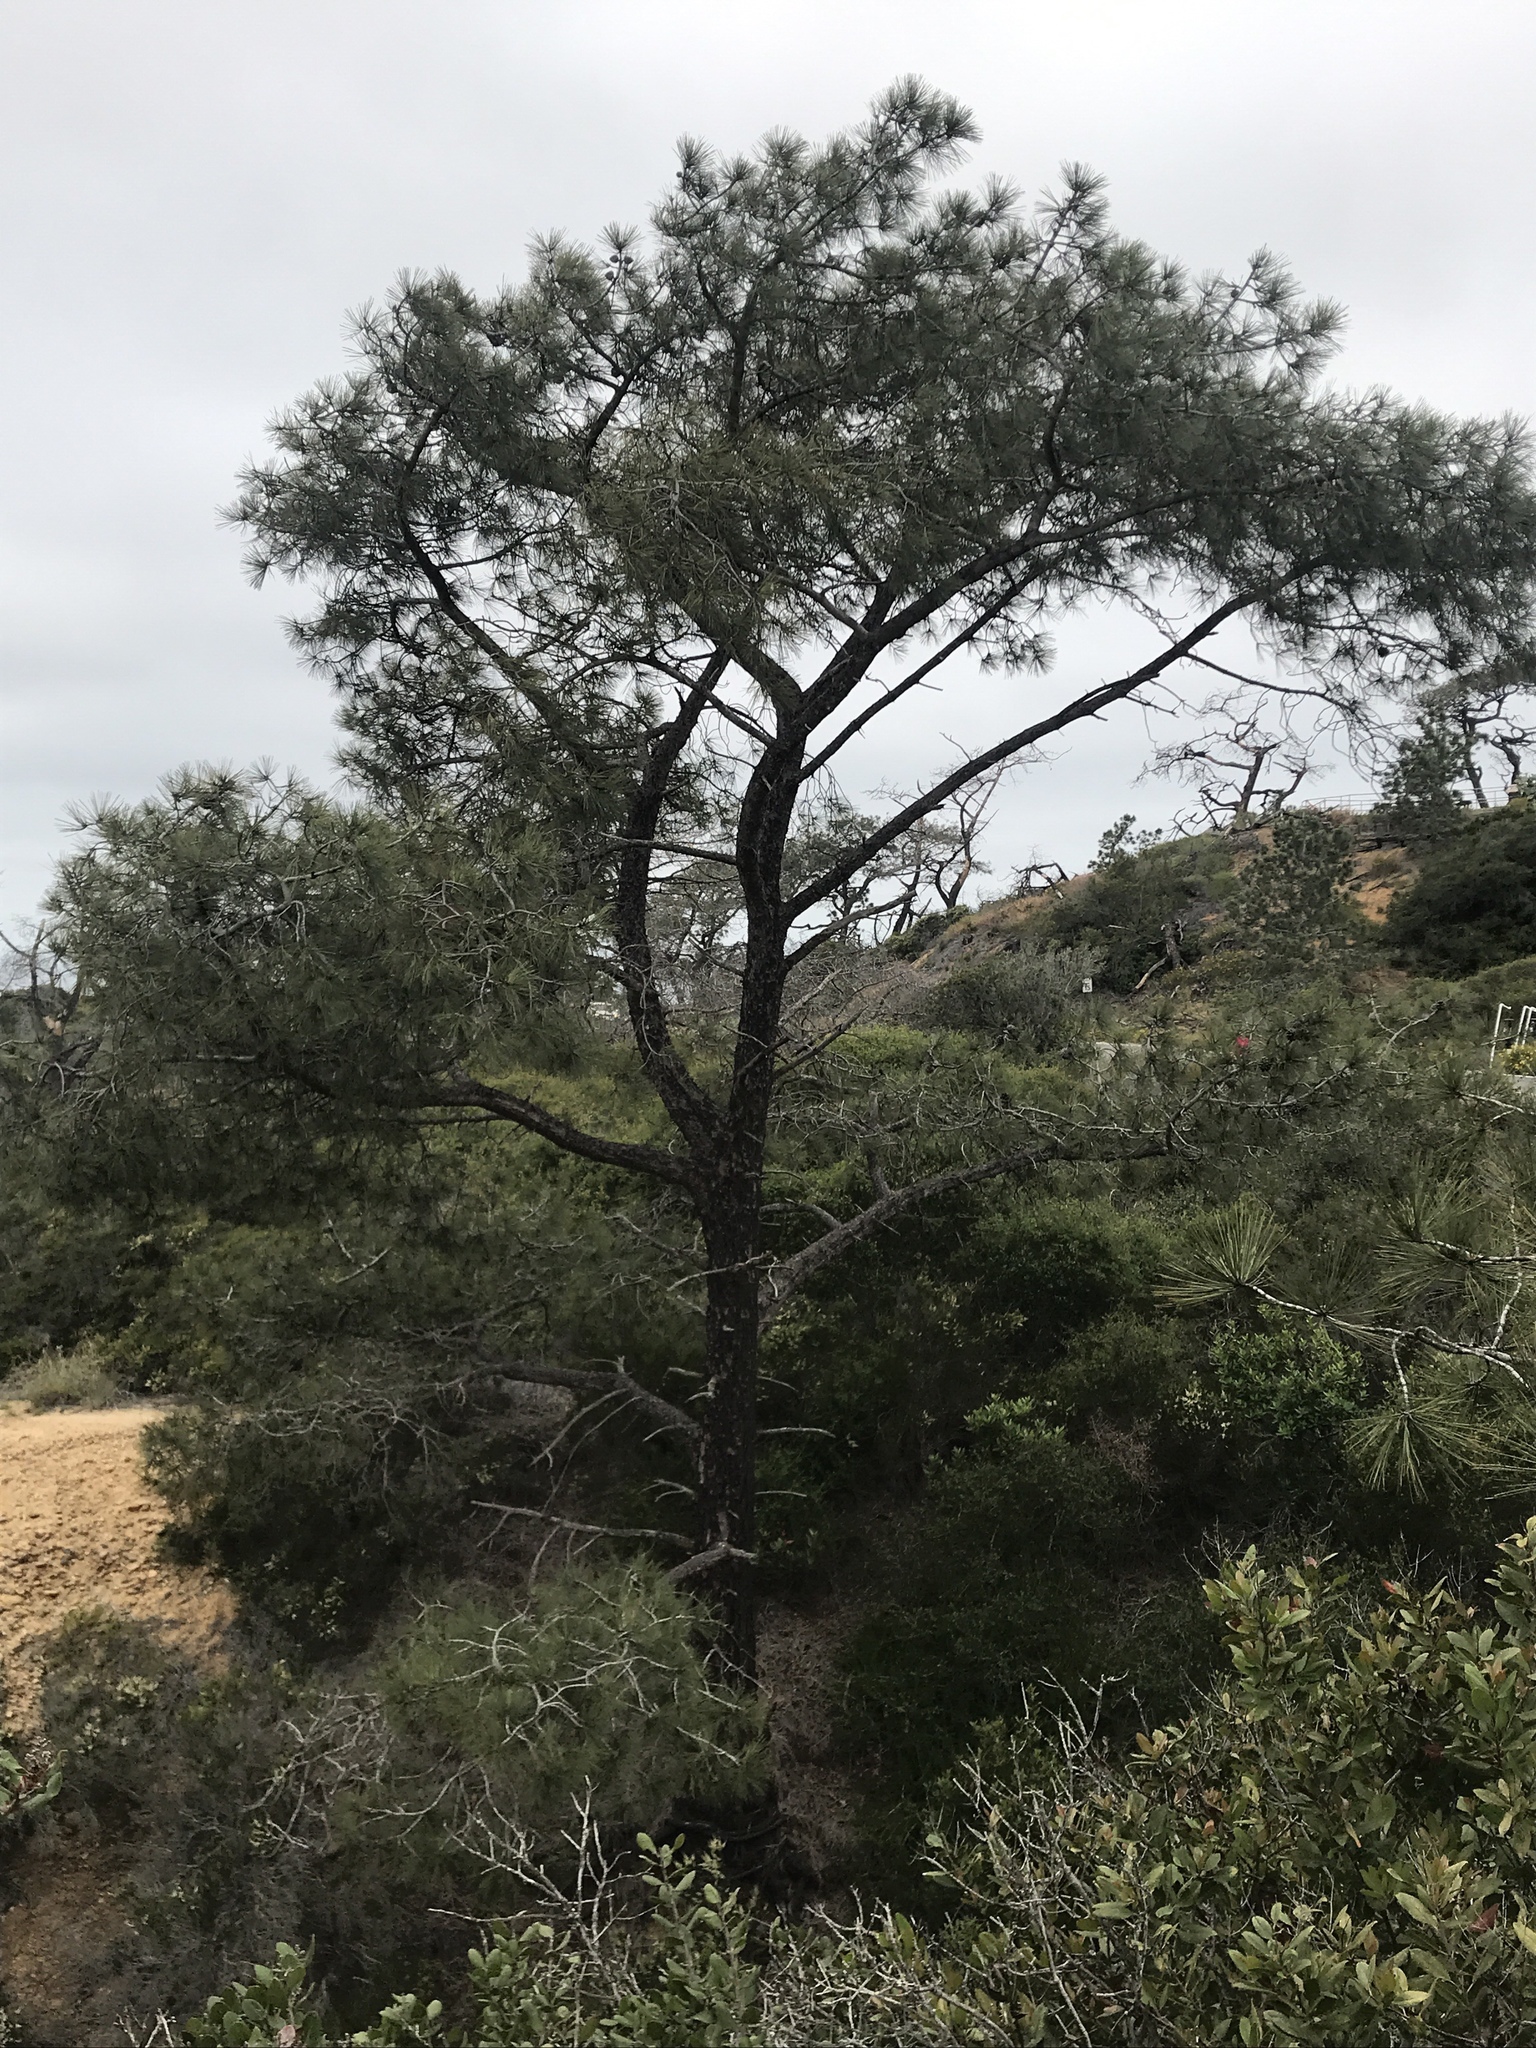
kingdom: Plantae
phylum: Tracheophyta
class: Pinopsida
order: Pinales
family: Pinaceae
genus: Pinus
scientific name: Pinus torreyana
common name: Torrey pine
